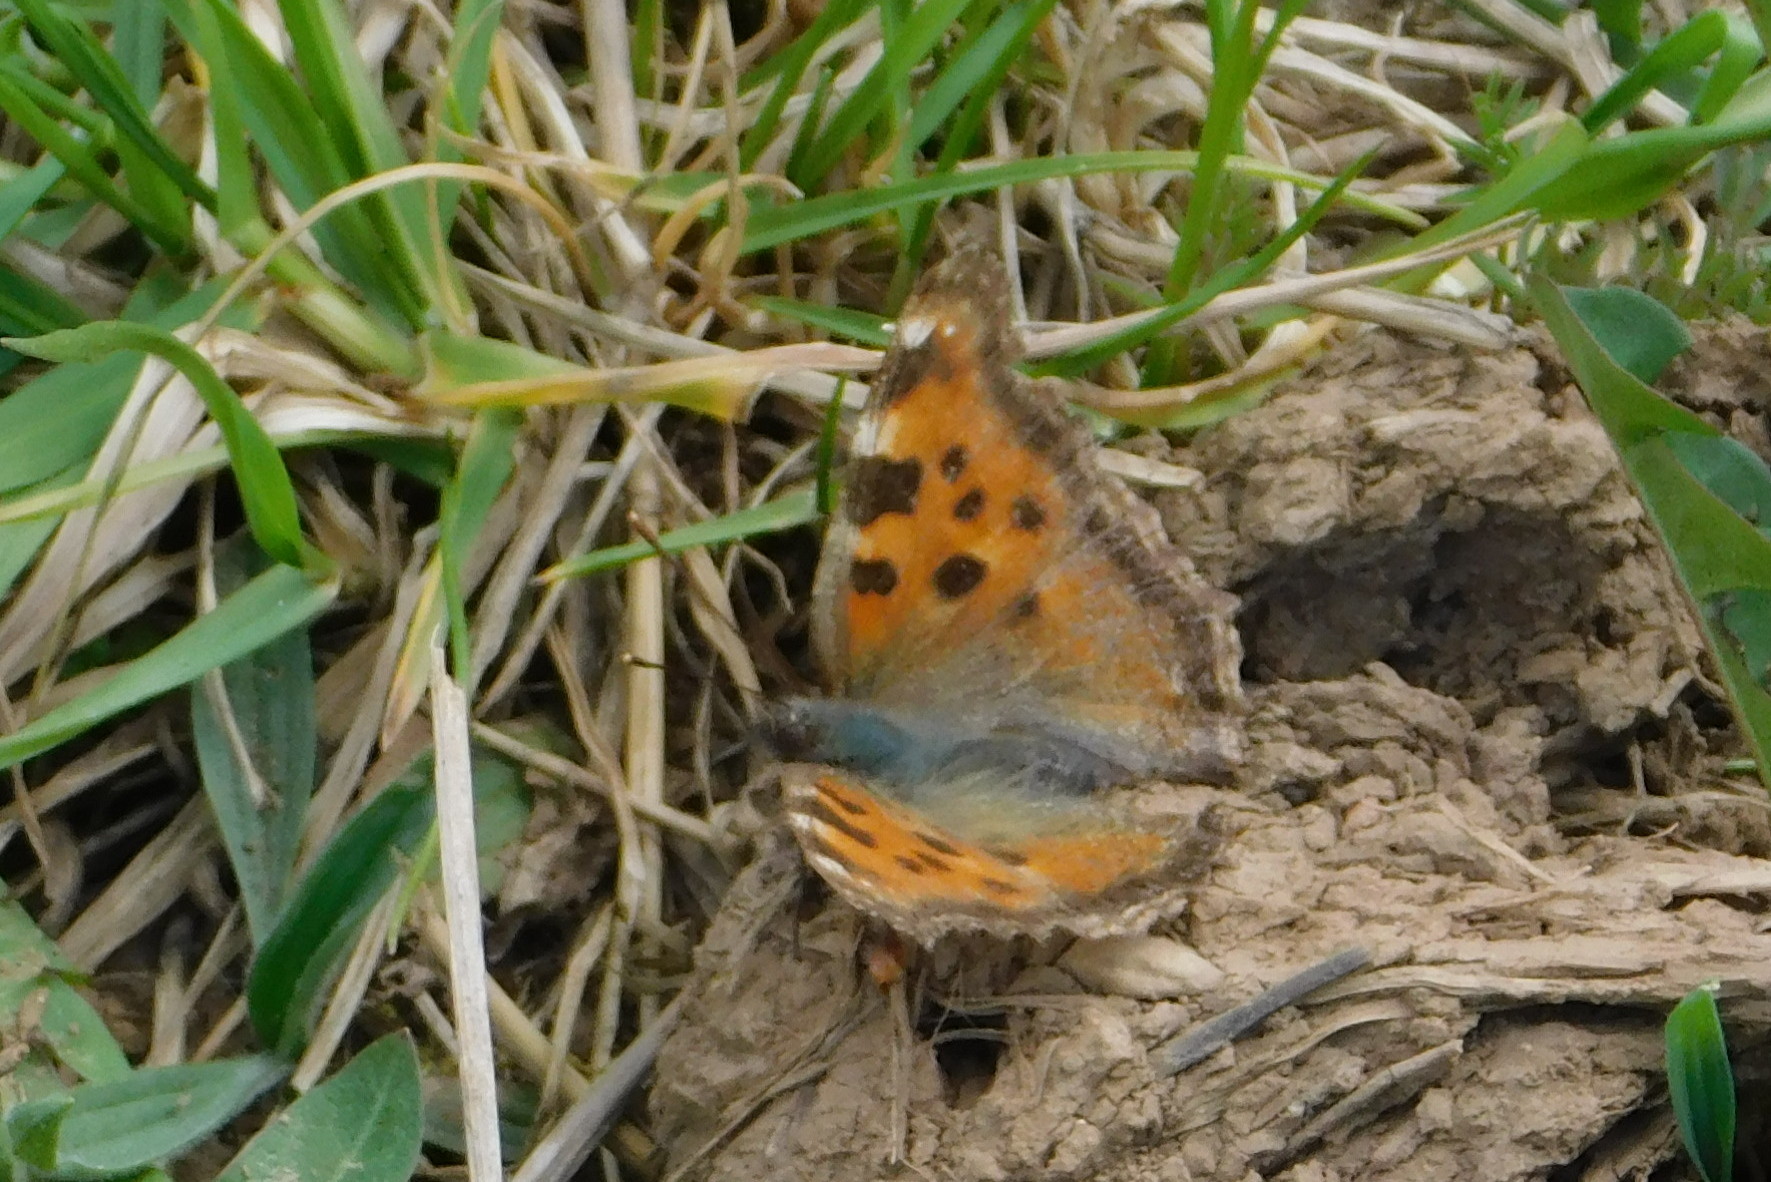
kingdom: Animalia
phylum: Arthropoda
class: Insecta
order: Lepidoptera
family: Nymphalidae
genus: Nymphalis
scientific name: Nymphalis polychloros
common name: Large tortoiseshell
